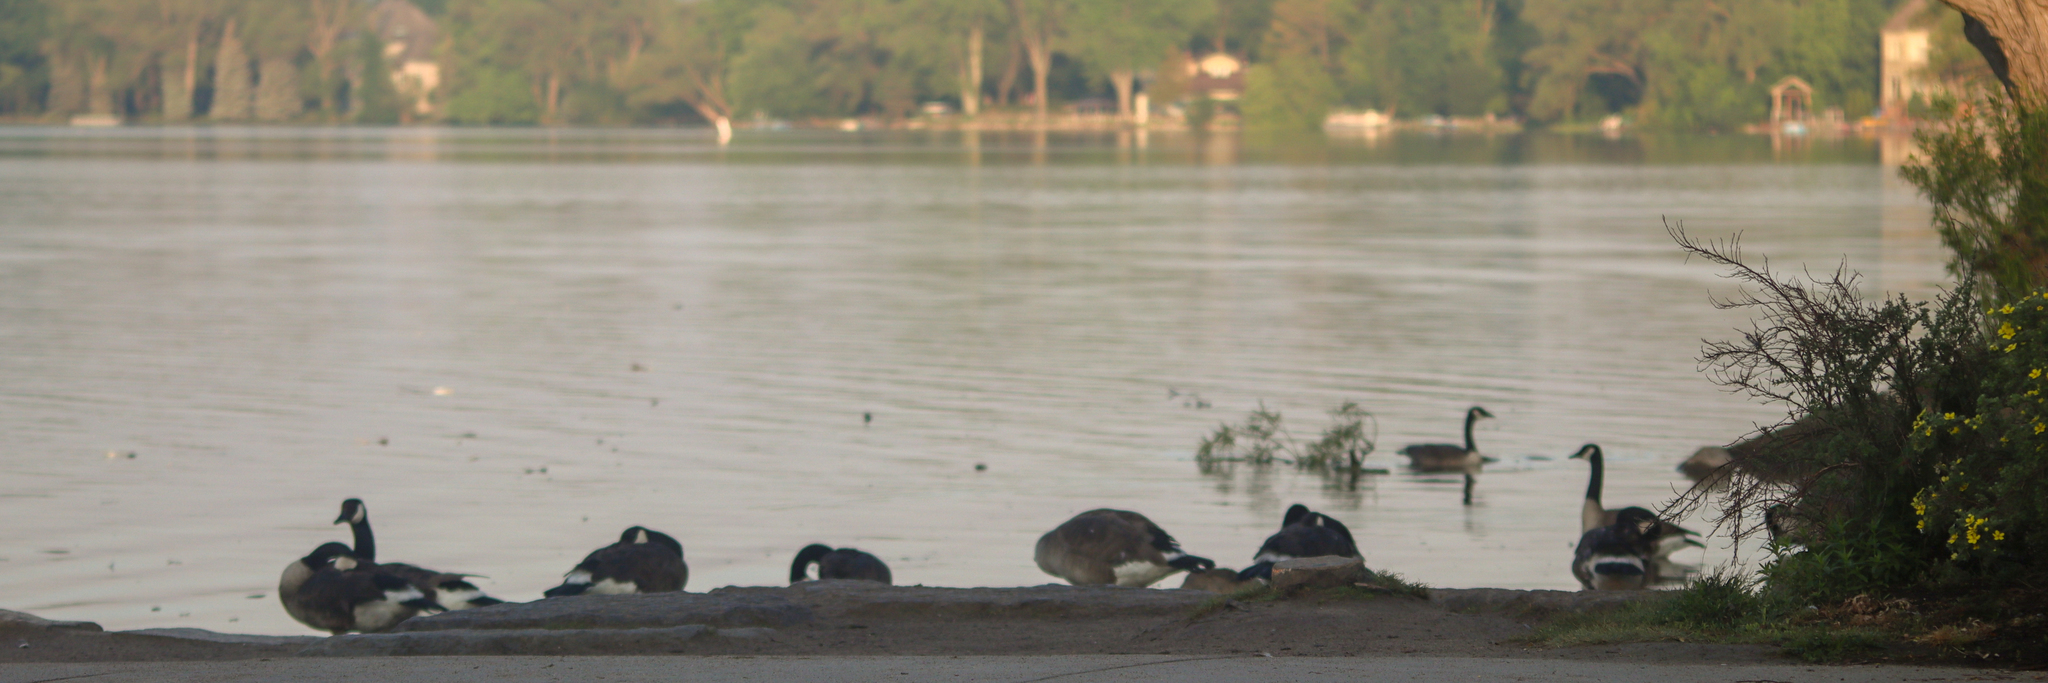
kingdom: Animalia
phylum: Chordata
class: Aves
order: Anseriformes
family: Anatidae
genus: Branta
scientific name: Branta canadensis
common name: Canada goose
